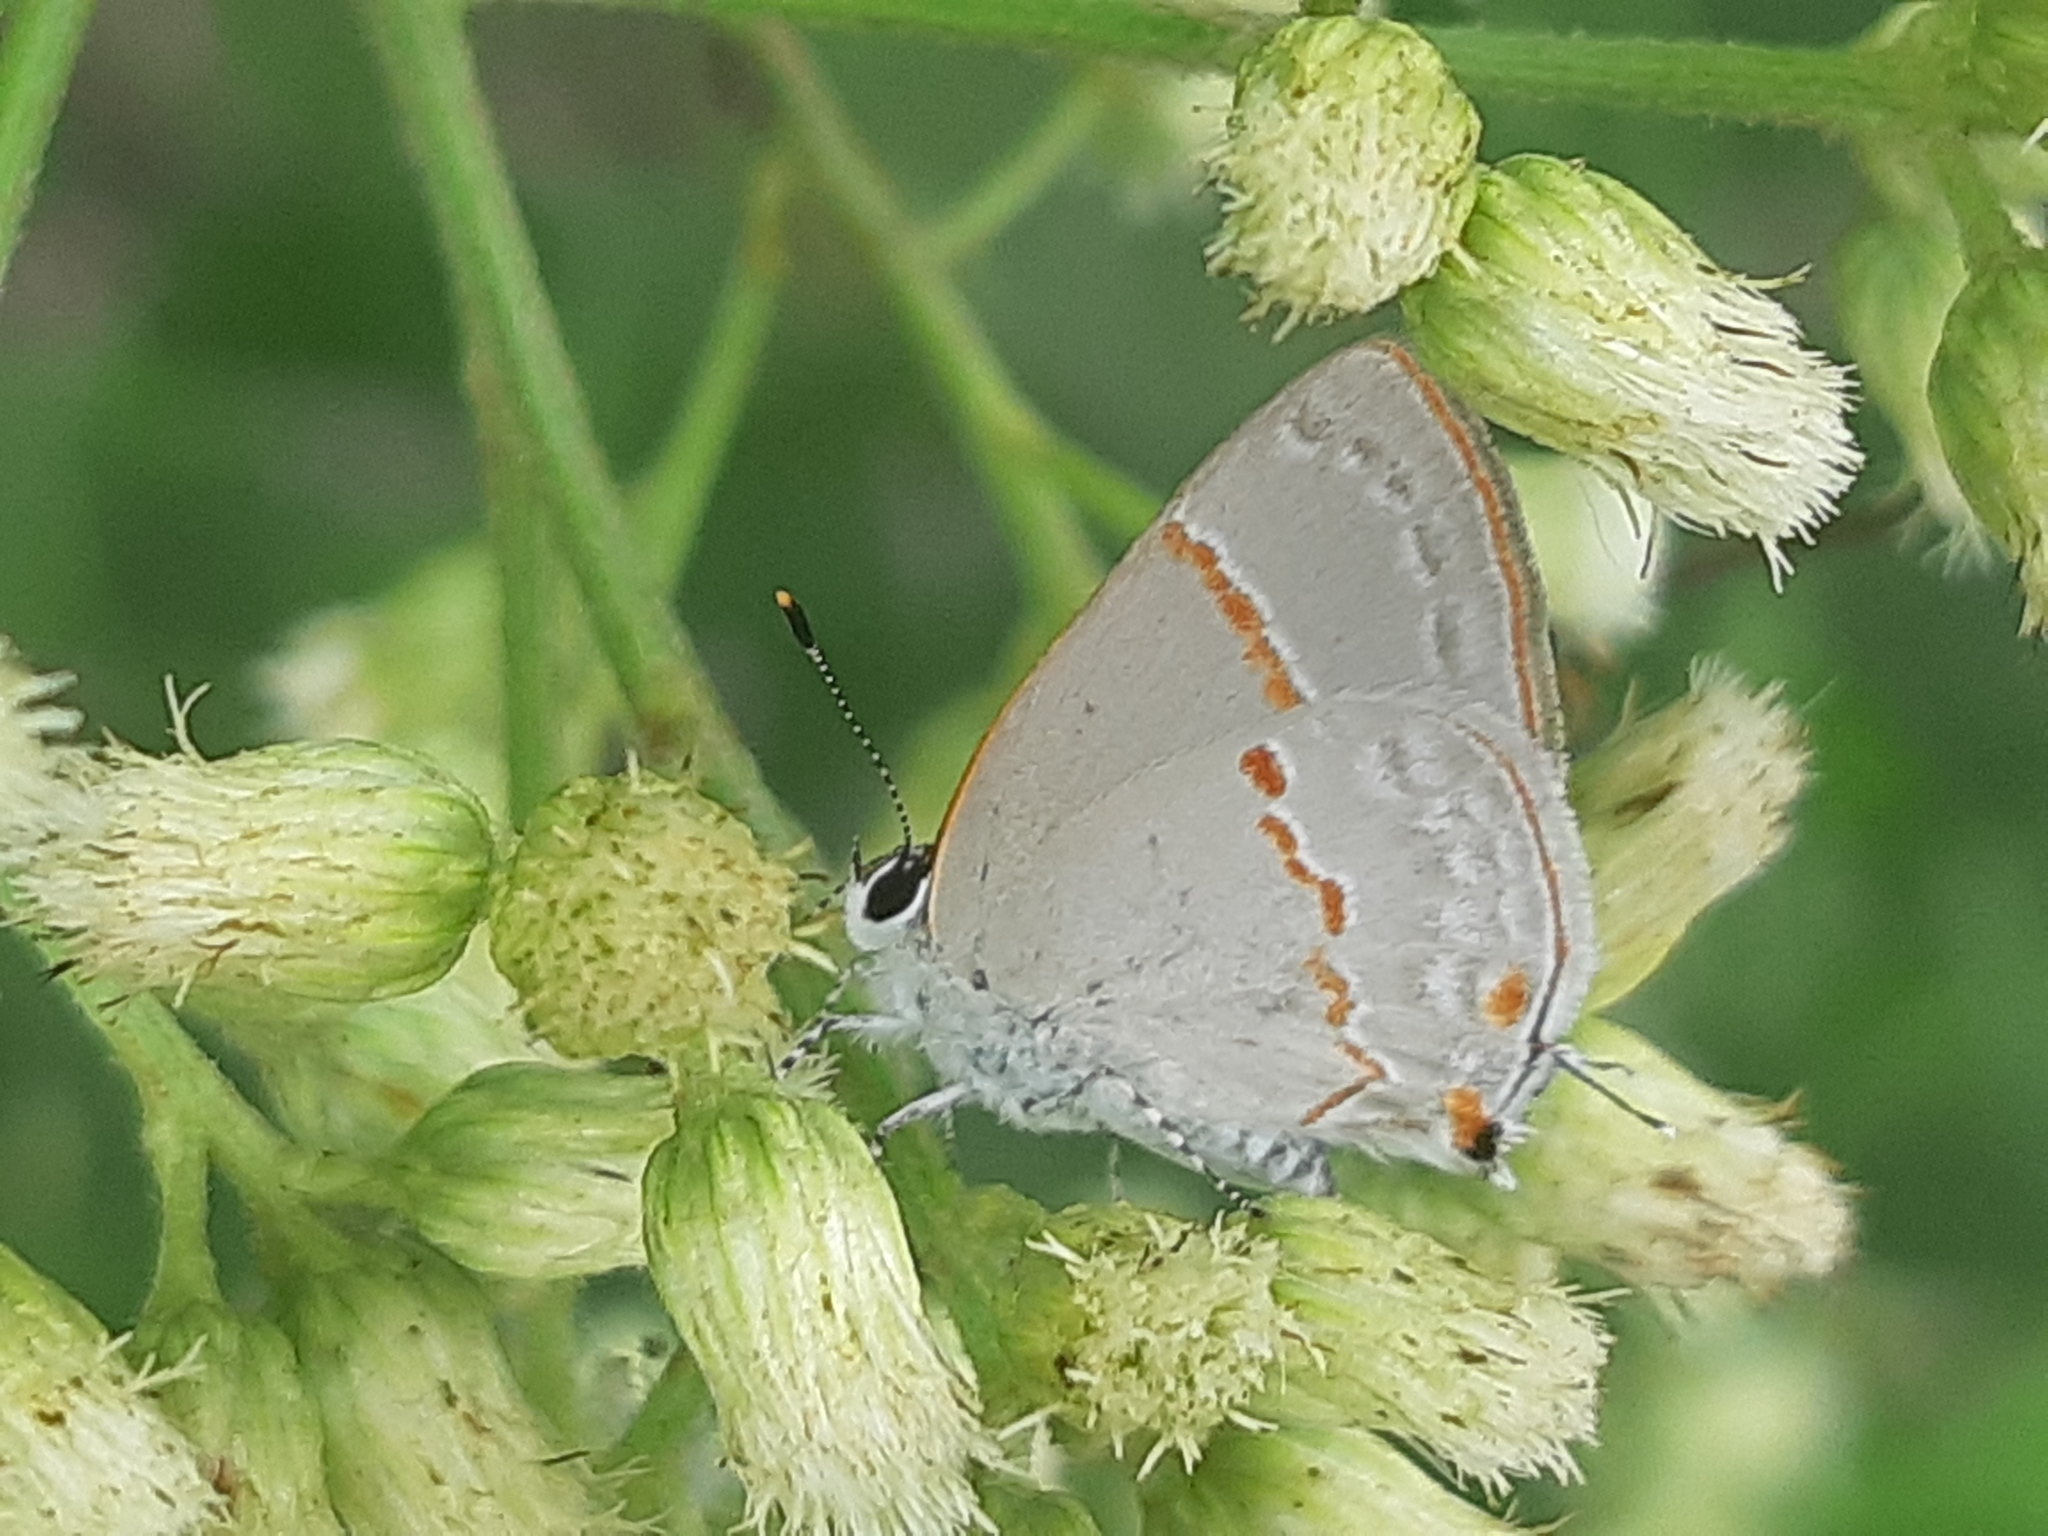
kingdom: Animalia
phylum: Arthropoda
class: Insecta
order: Lepidoptera
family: Lycaenidae
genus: Thecla
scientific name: Thecla azia
